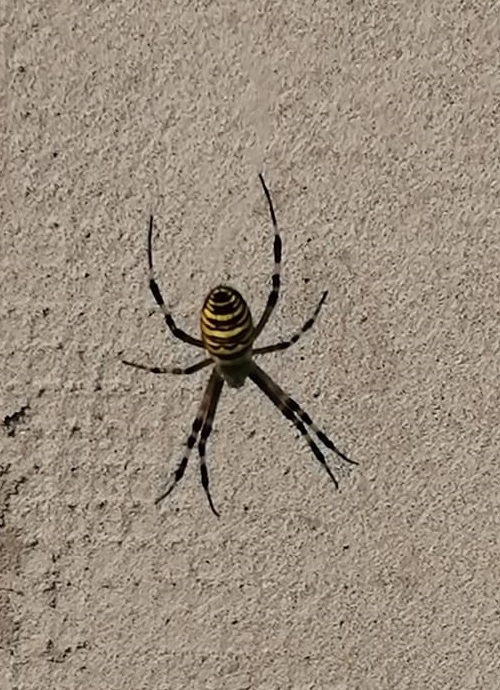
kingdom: Animalia
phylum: Arthropoda
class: Arachnida
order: Araneae
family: Araneidae
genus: Argiope
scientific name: Argiope bruennichi
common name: Wasp spider
